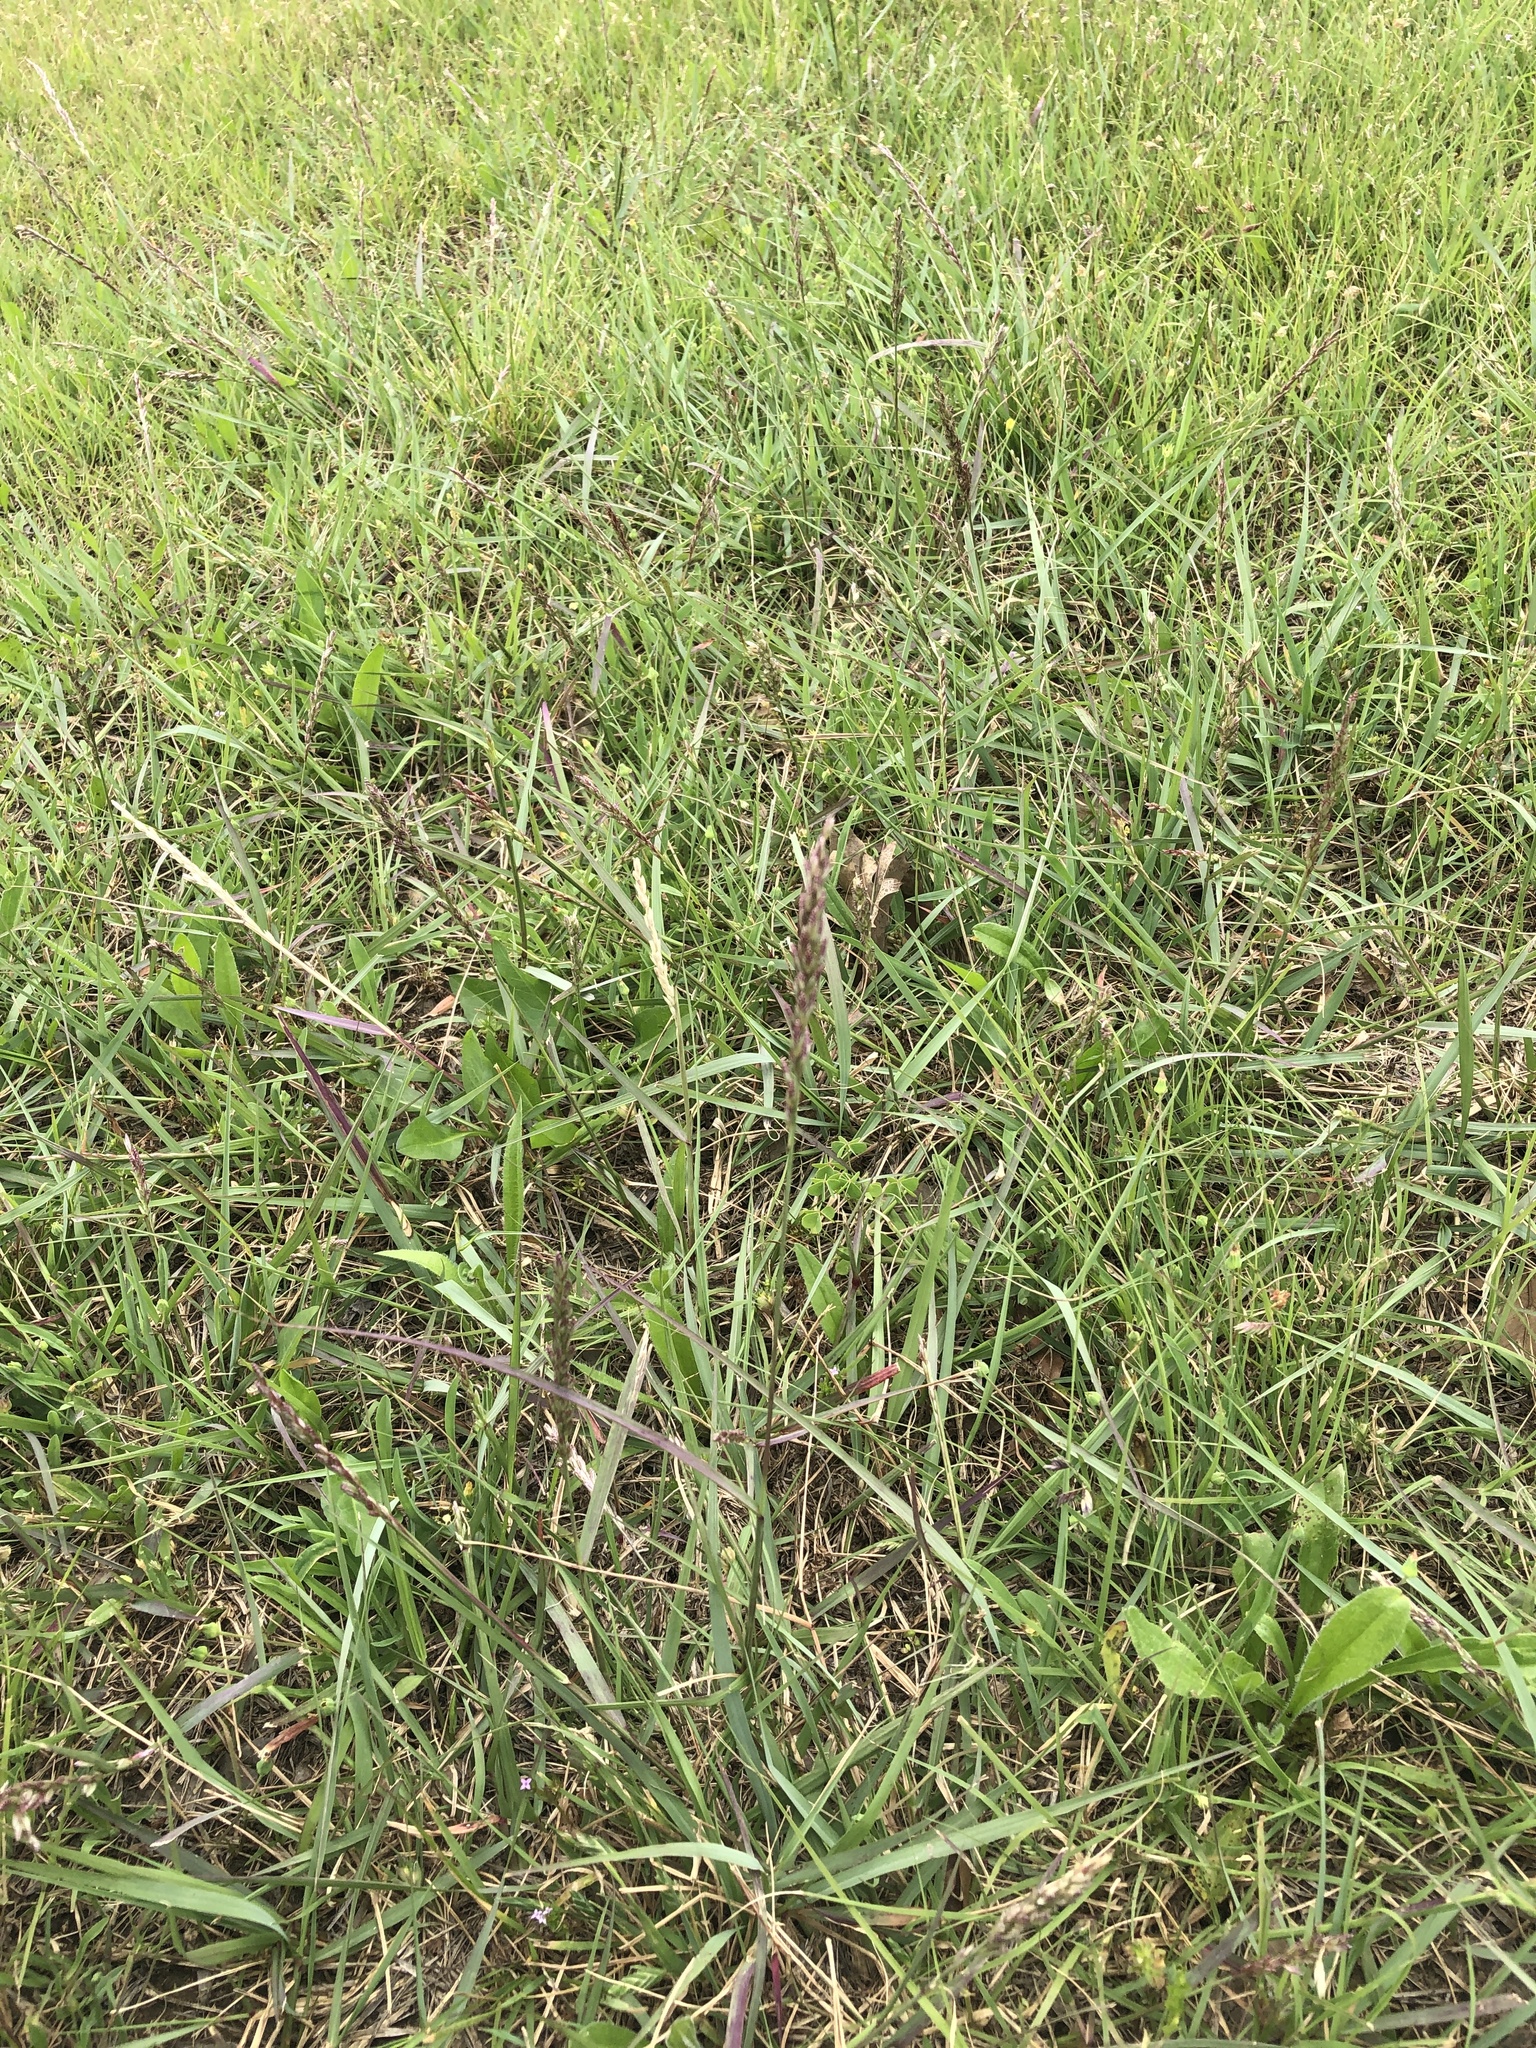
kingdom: Plantae
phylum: Tracheophyta
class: Liliopsida
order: Poales
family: Poaceae
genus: Tridens
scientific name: Tridens albescens
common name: White tridens
